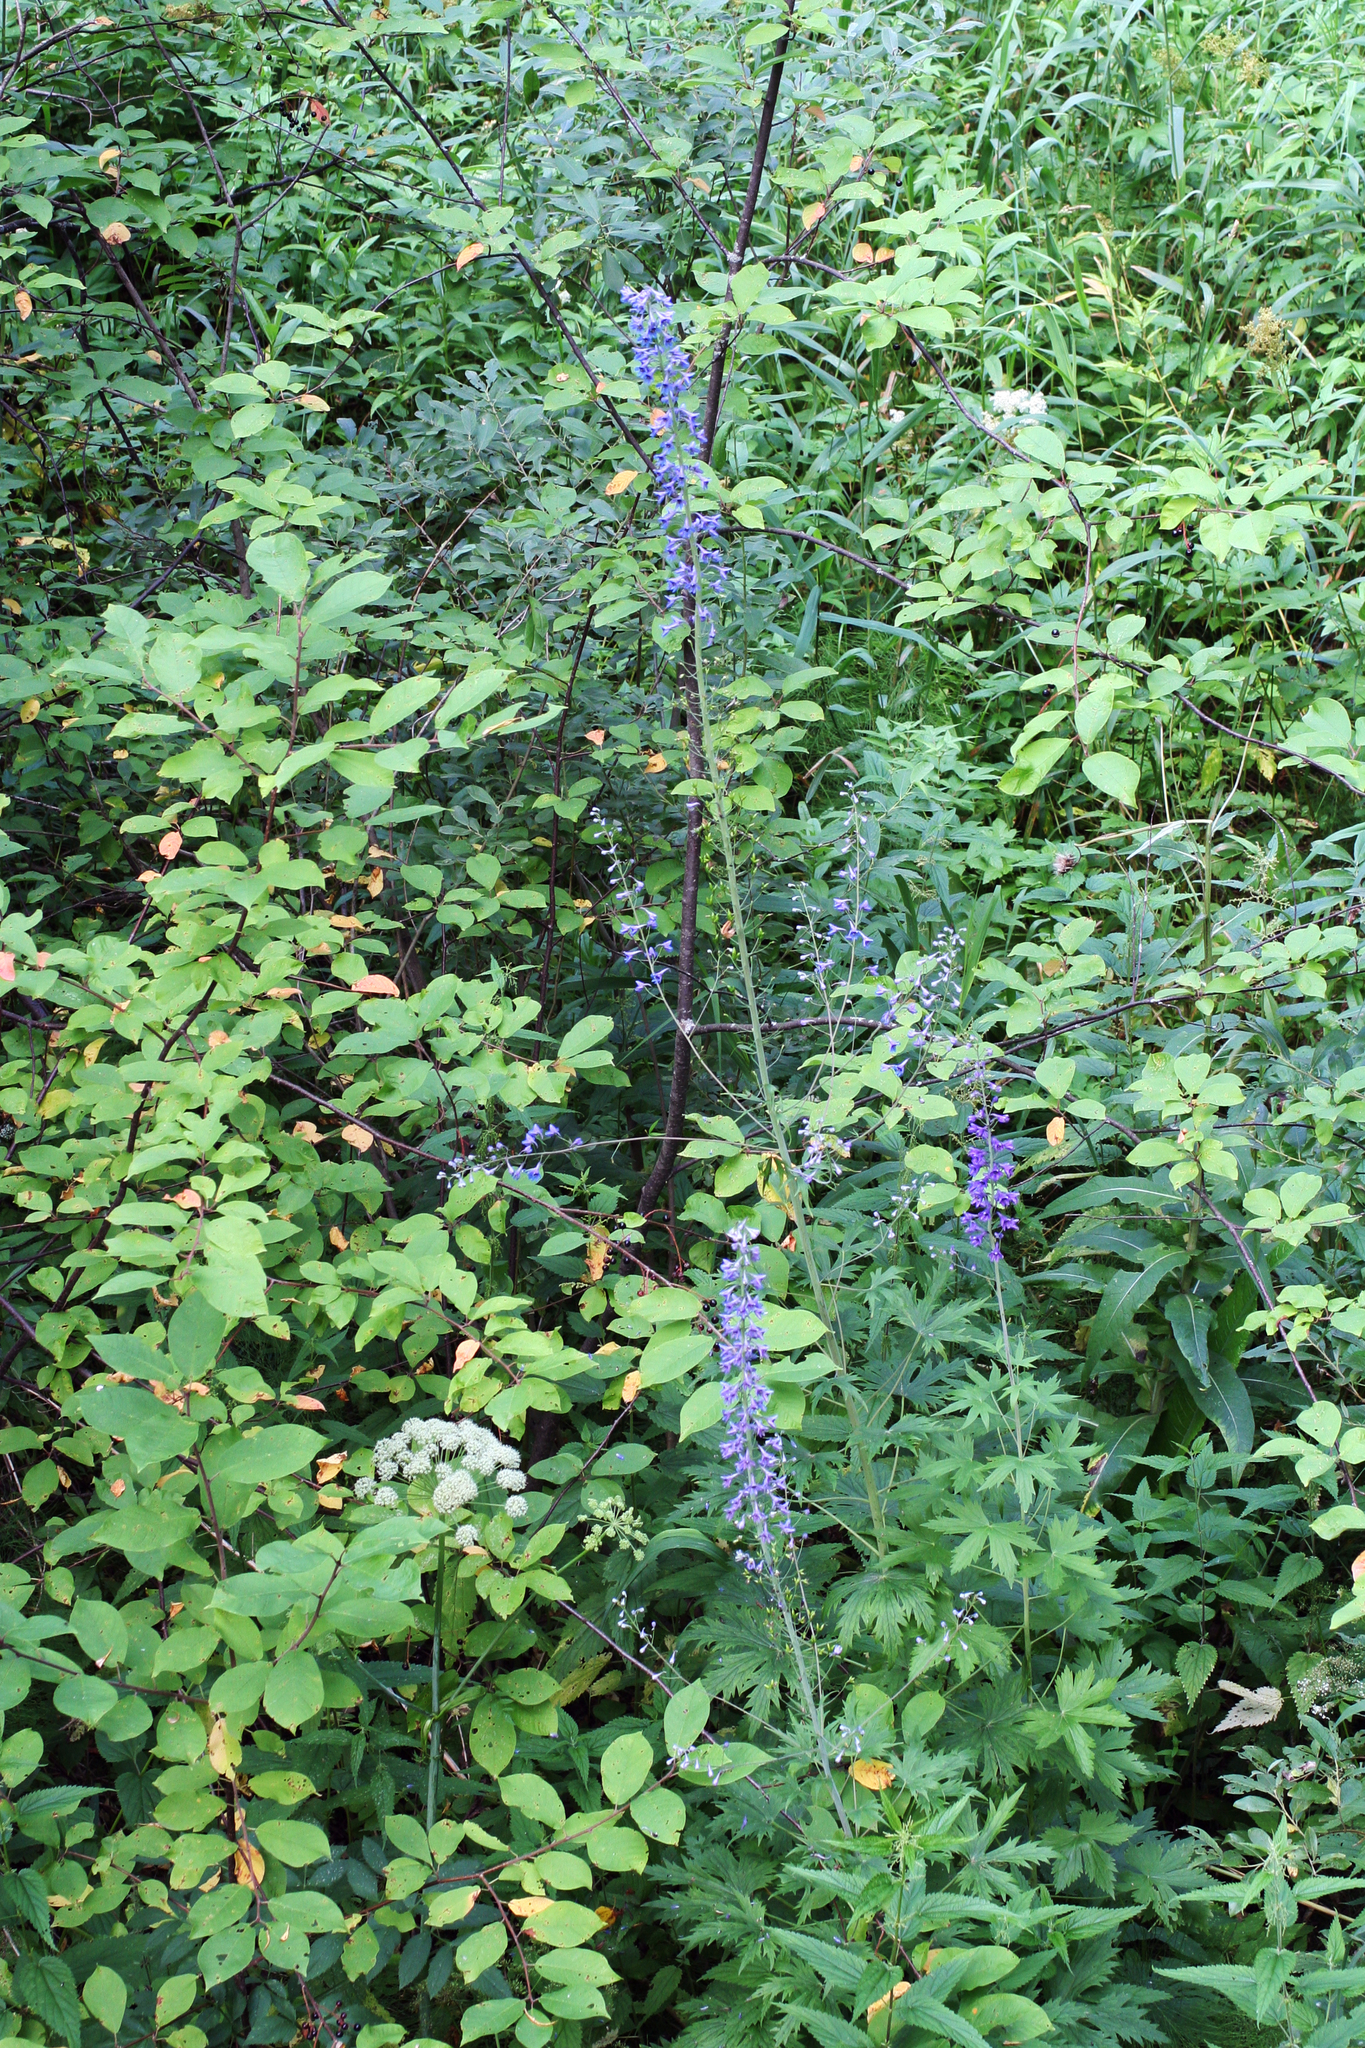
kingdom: Plantae
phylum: Tracheophyta
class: Magnoliopsida
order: Ranunculales
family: Ranunculaceae
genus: Delphinium
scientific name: Delphinium elatum
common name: Candle larkspur
